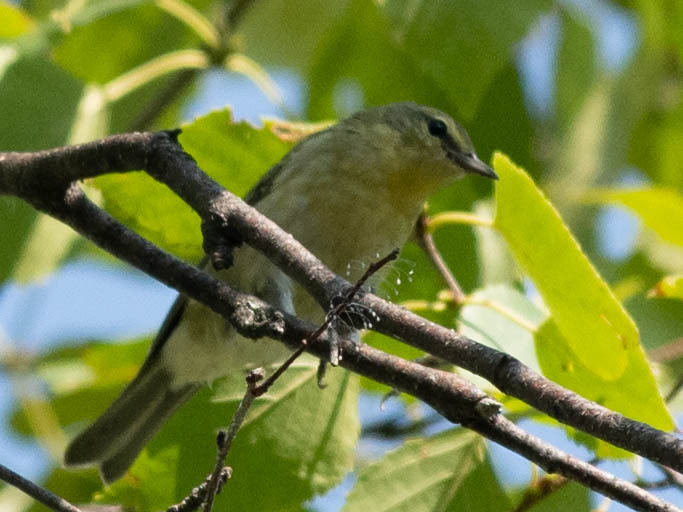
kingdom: Animalia
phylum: Chordata
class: Aves
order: Passeriformes
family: Parulidae
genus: Leiothlypis
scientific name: Leiothlypis peregrina
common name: Tennessee warbler
